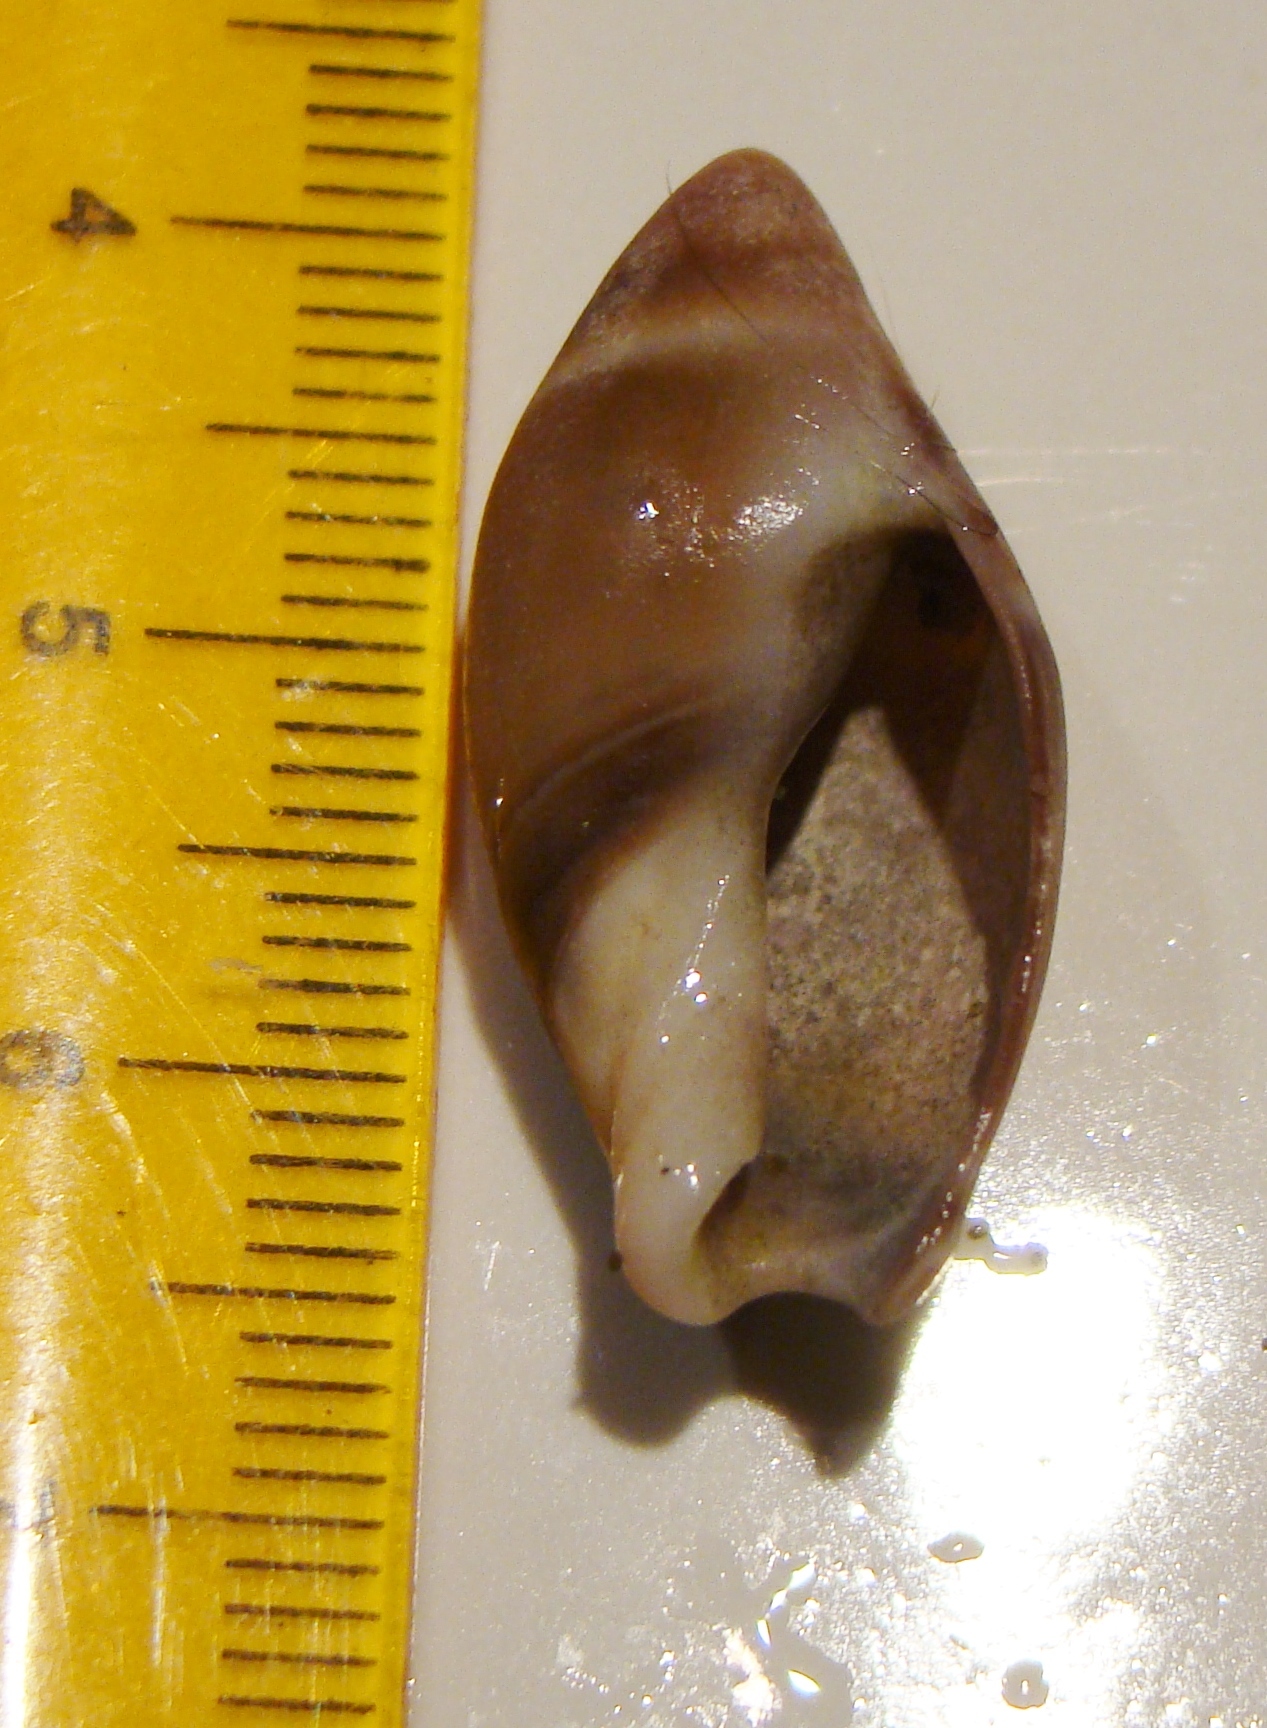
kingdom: Animalia
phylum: Mollusca
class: Gastropoda
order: Neogastropoda
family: Ancillariidae
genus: Amalda
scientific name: Amalda australis
